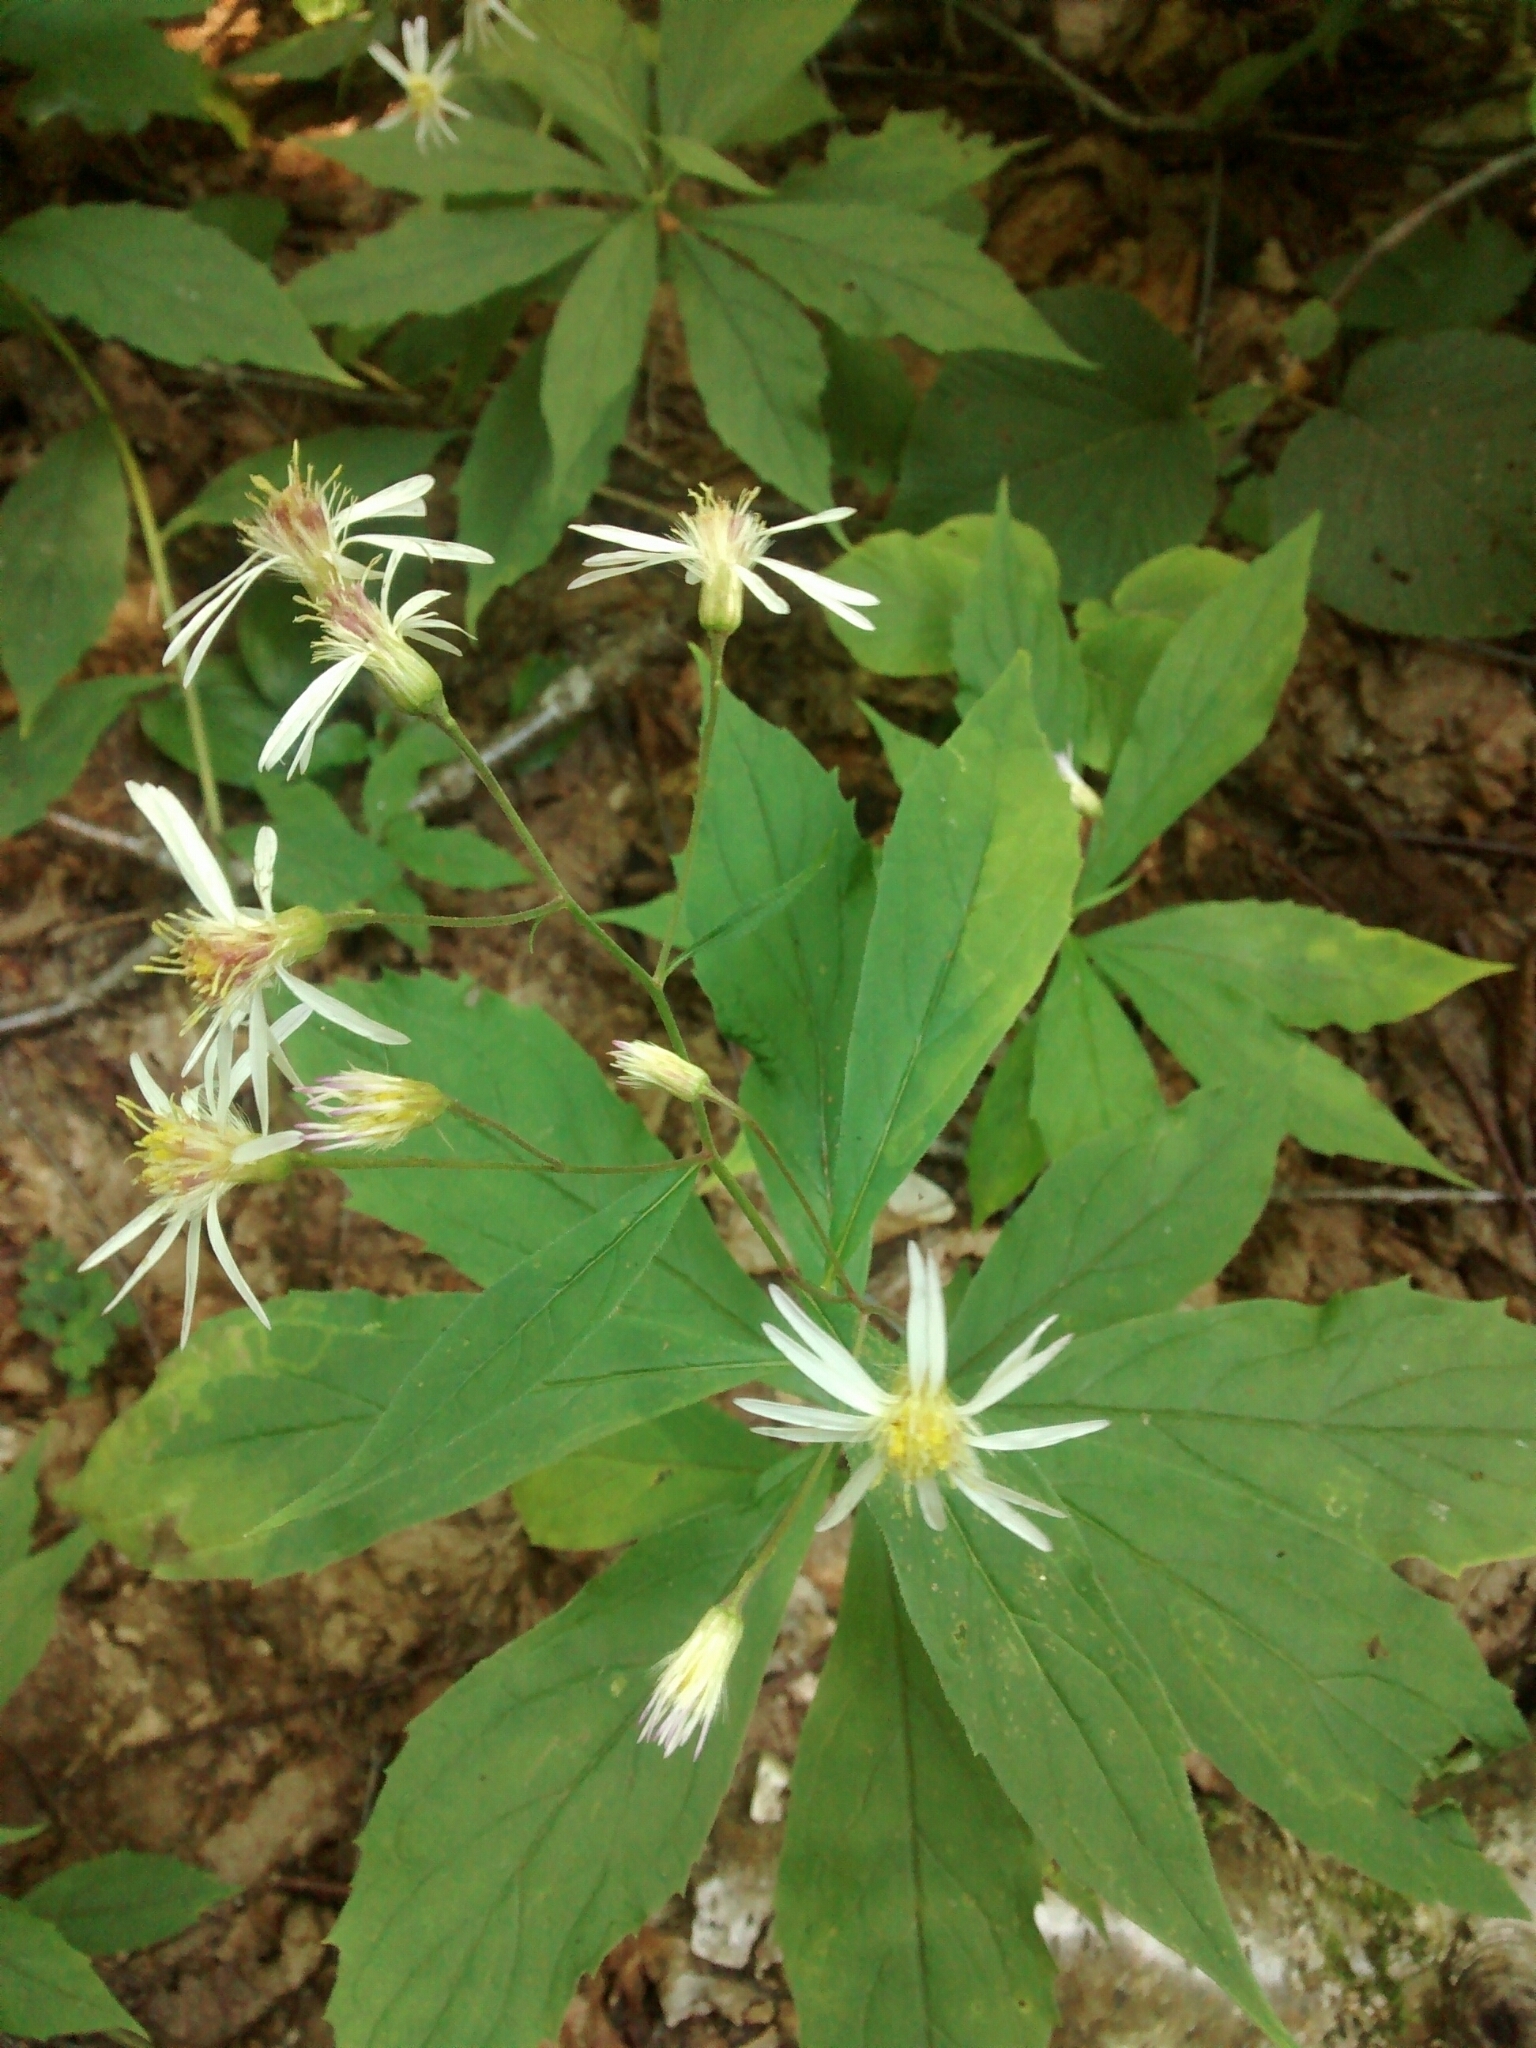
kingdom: Plantae
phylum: Tracheophyta
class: Magnoliopsida
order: Asterales
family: Asteraceae
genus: Oclemena
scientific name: Oclemena acuminata
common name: Mountain aster
